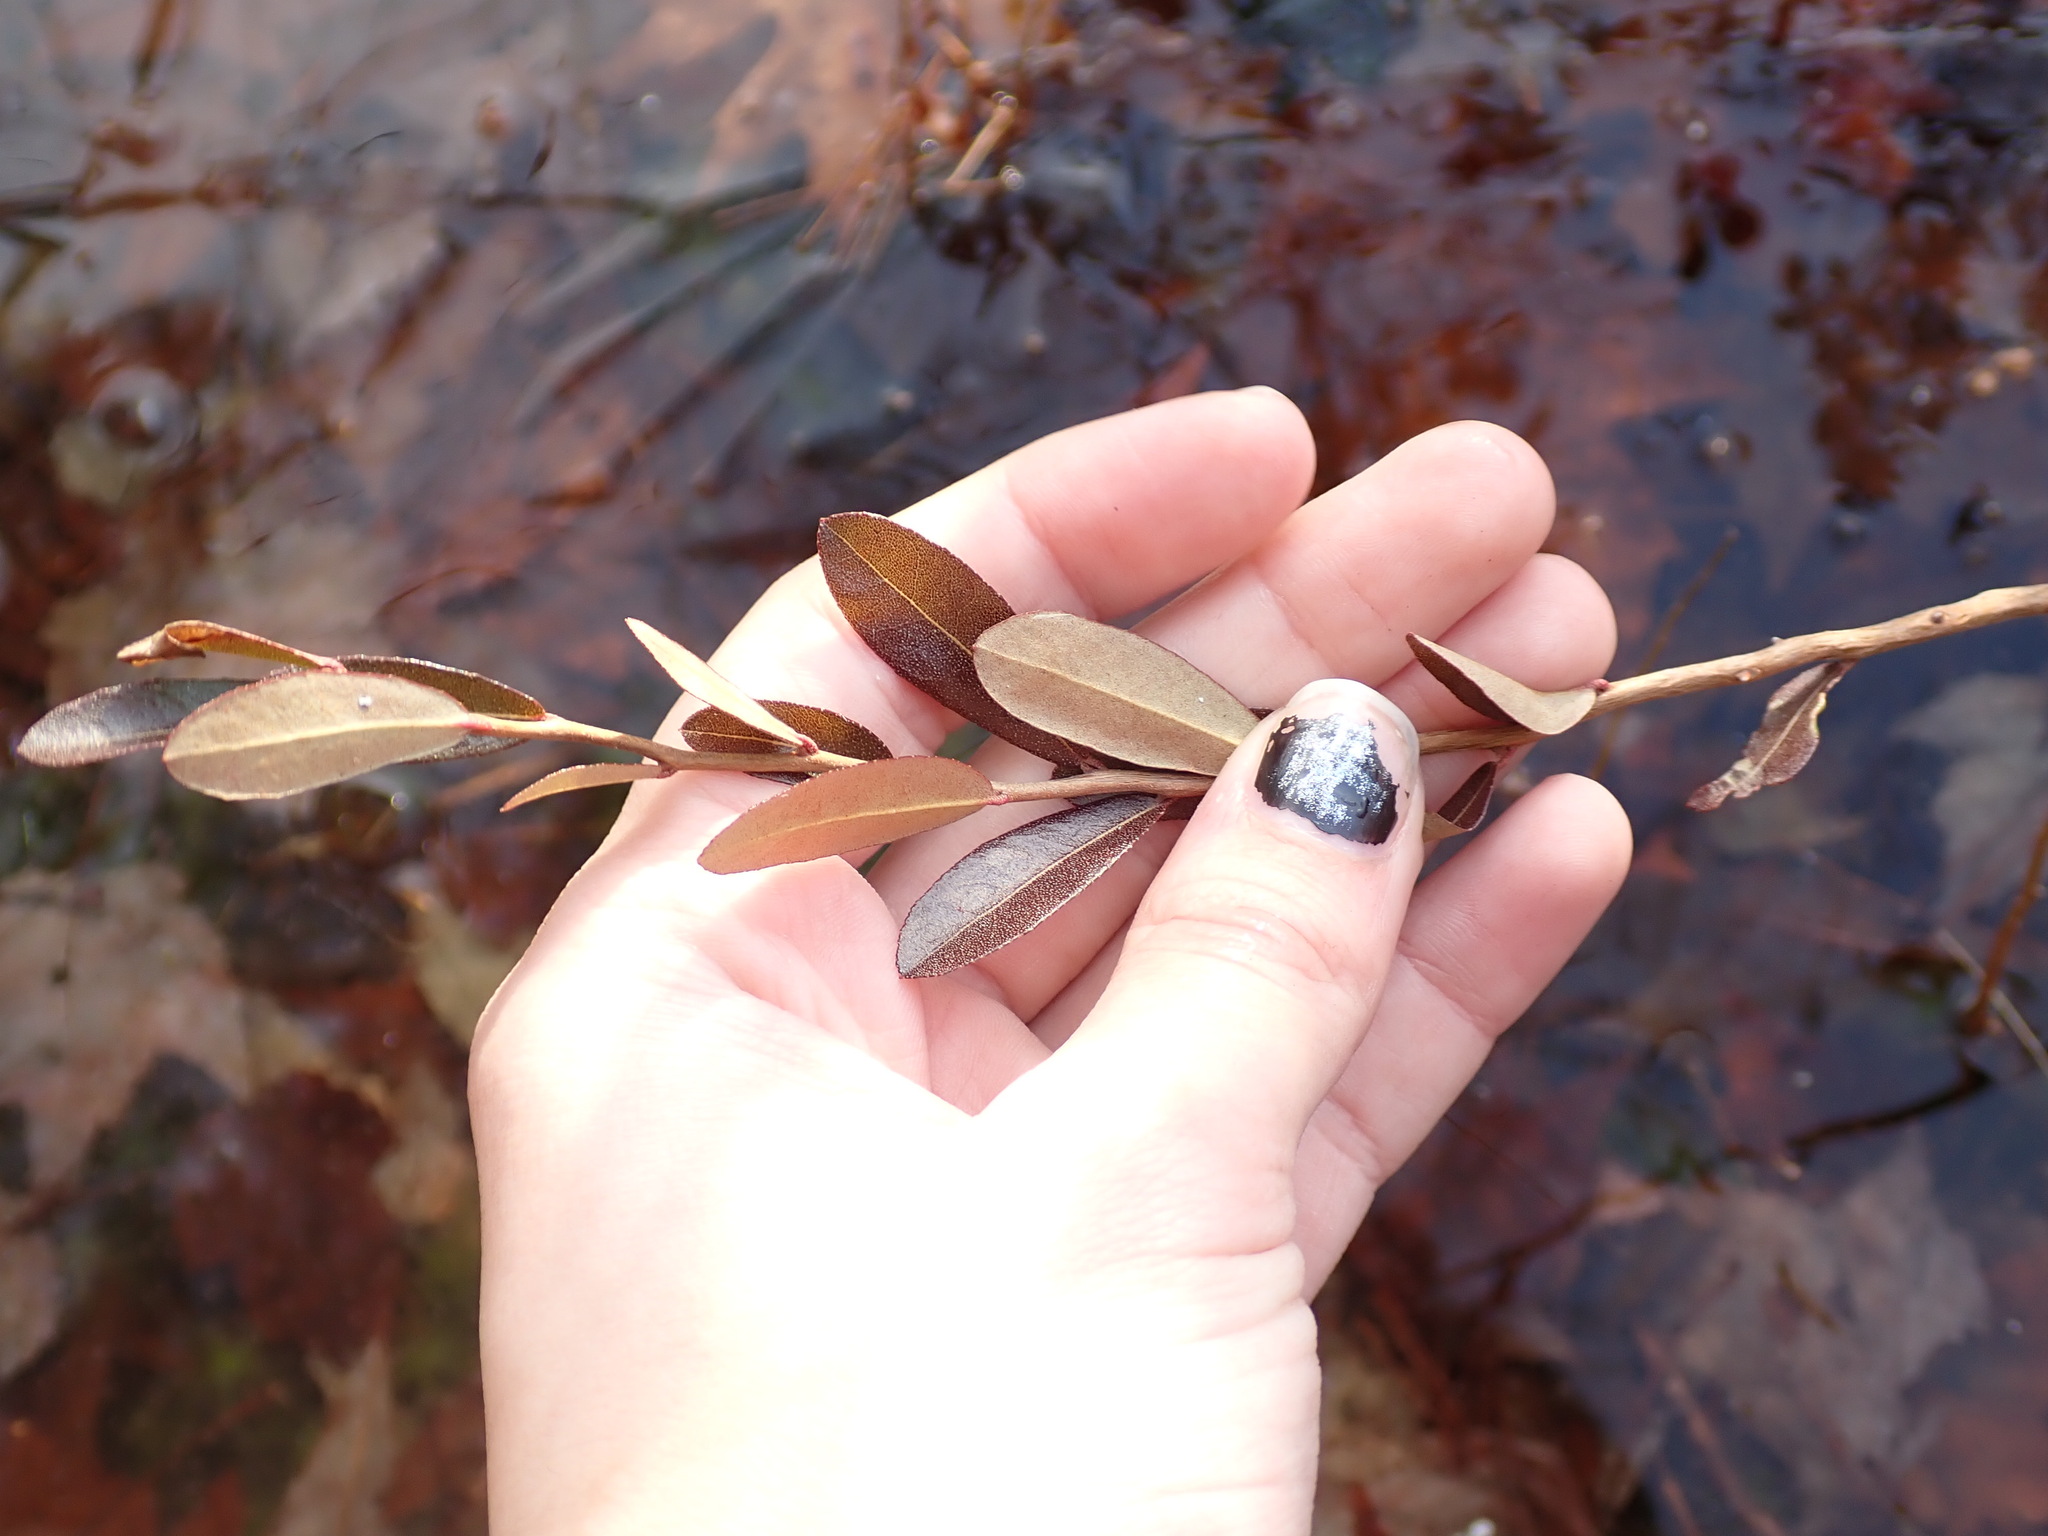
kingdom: Plantae
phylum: Tracheophyta
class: Magnoliopsida
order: Ericales
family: Ericaceae
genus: Chamaedaphne
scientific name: Chamaedaphne calyculata
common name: Leatherleaf
